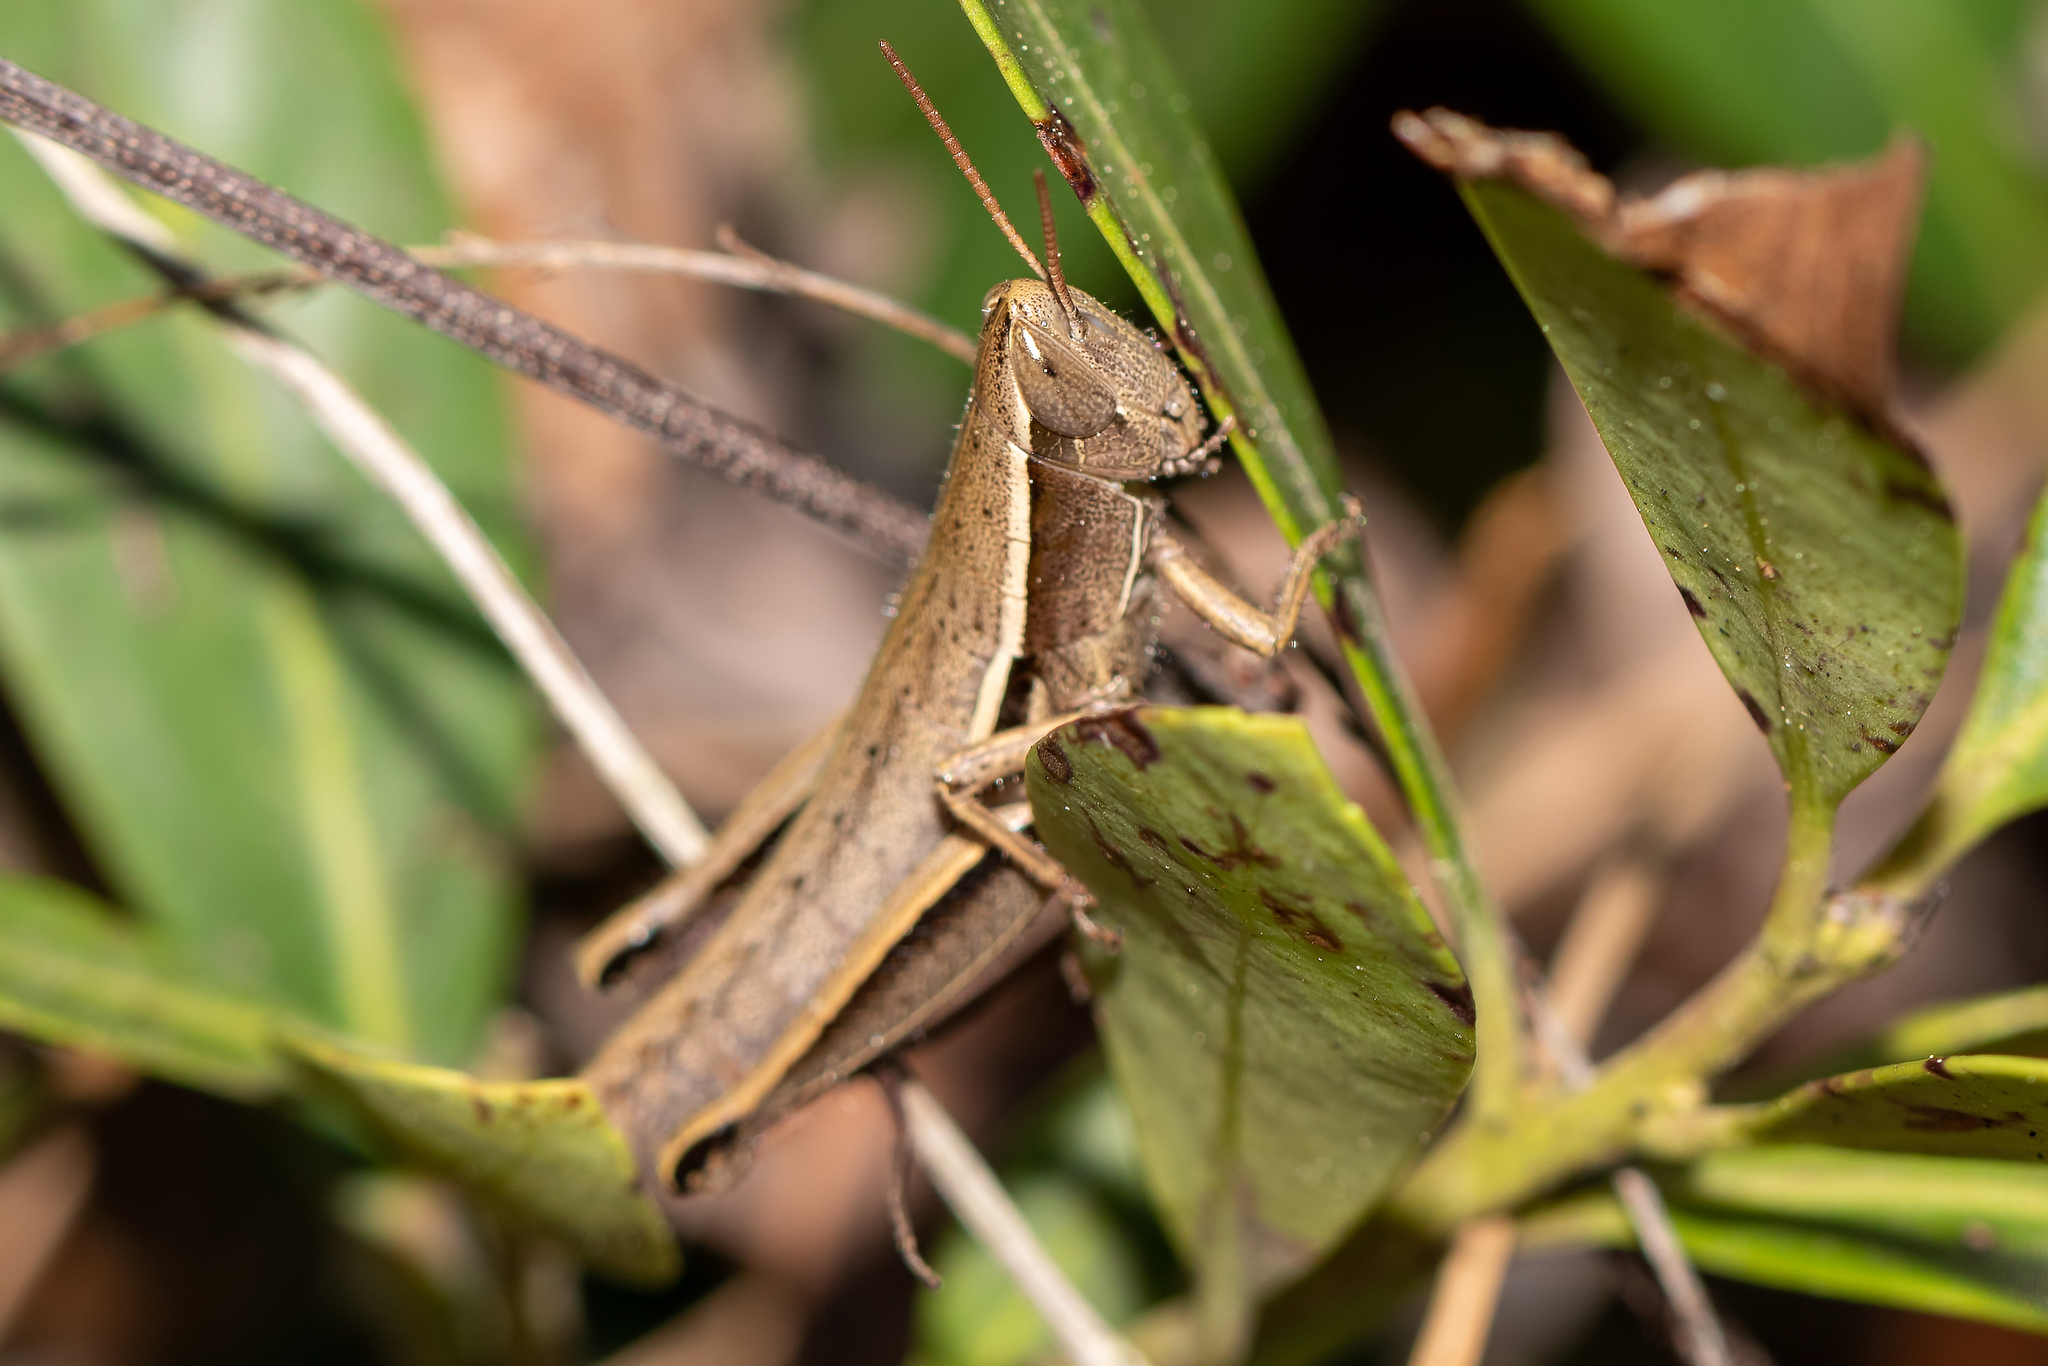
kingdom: Animalia
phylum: Arthropoda
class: Insecta
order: Orthoptera
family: Acrididae
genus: Aptenopedes
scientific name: Aptenopedes sphenarioides
